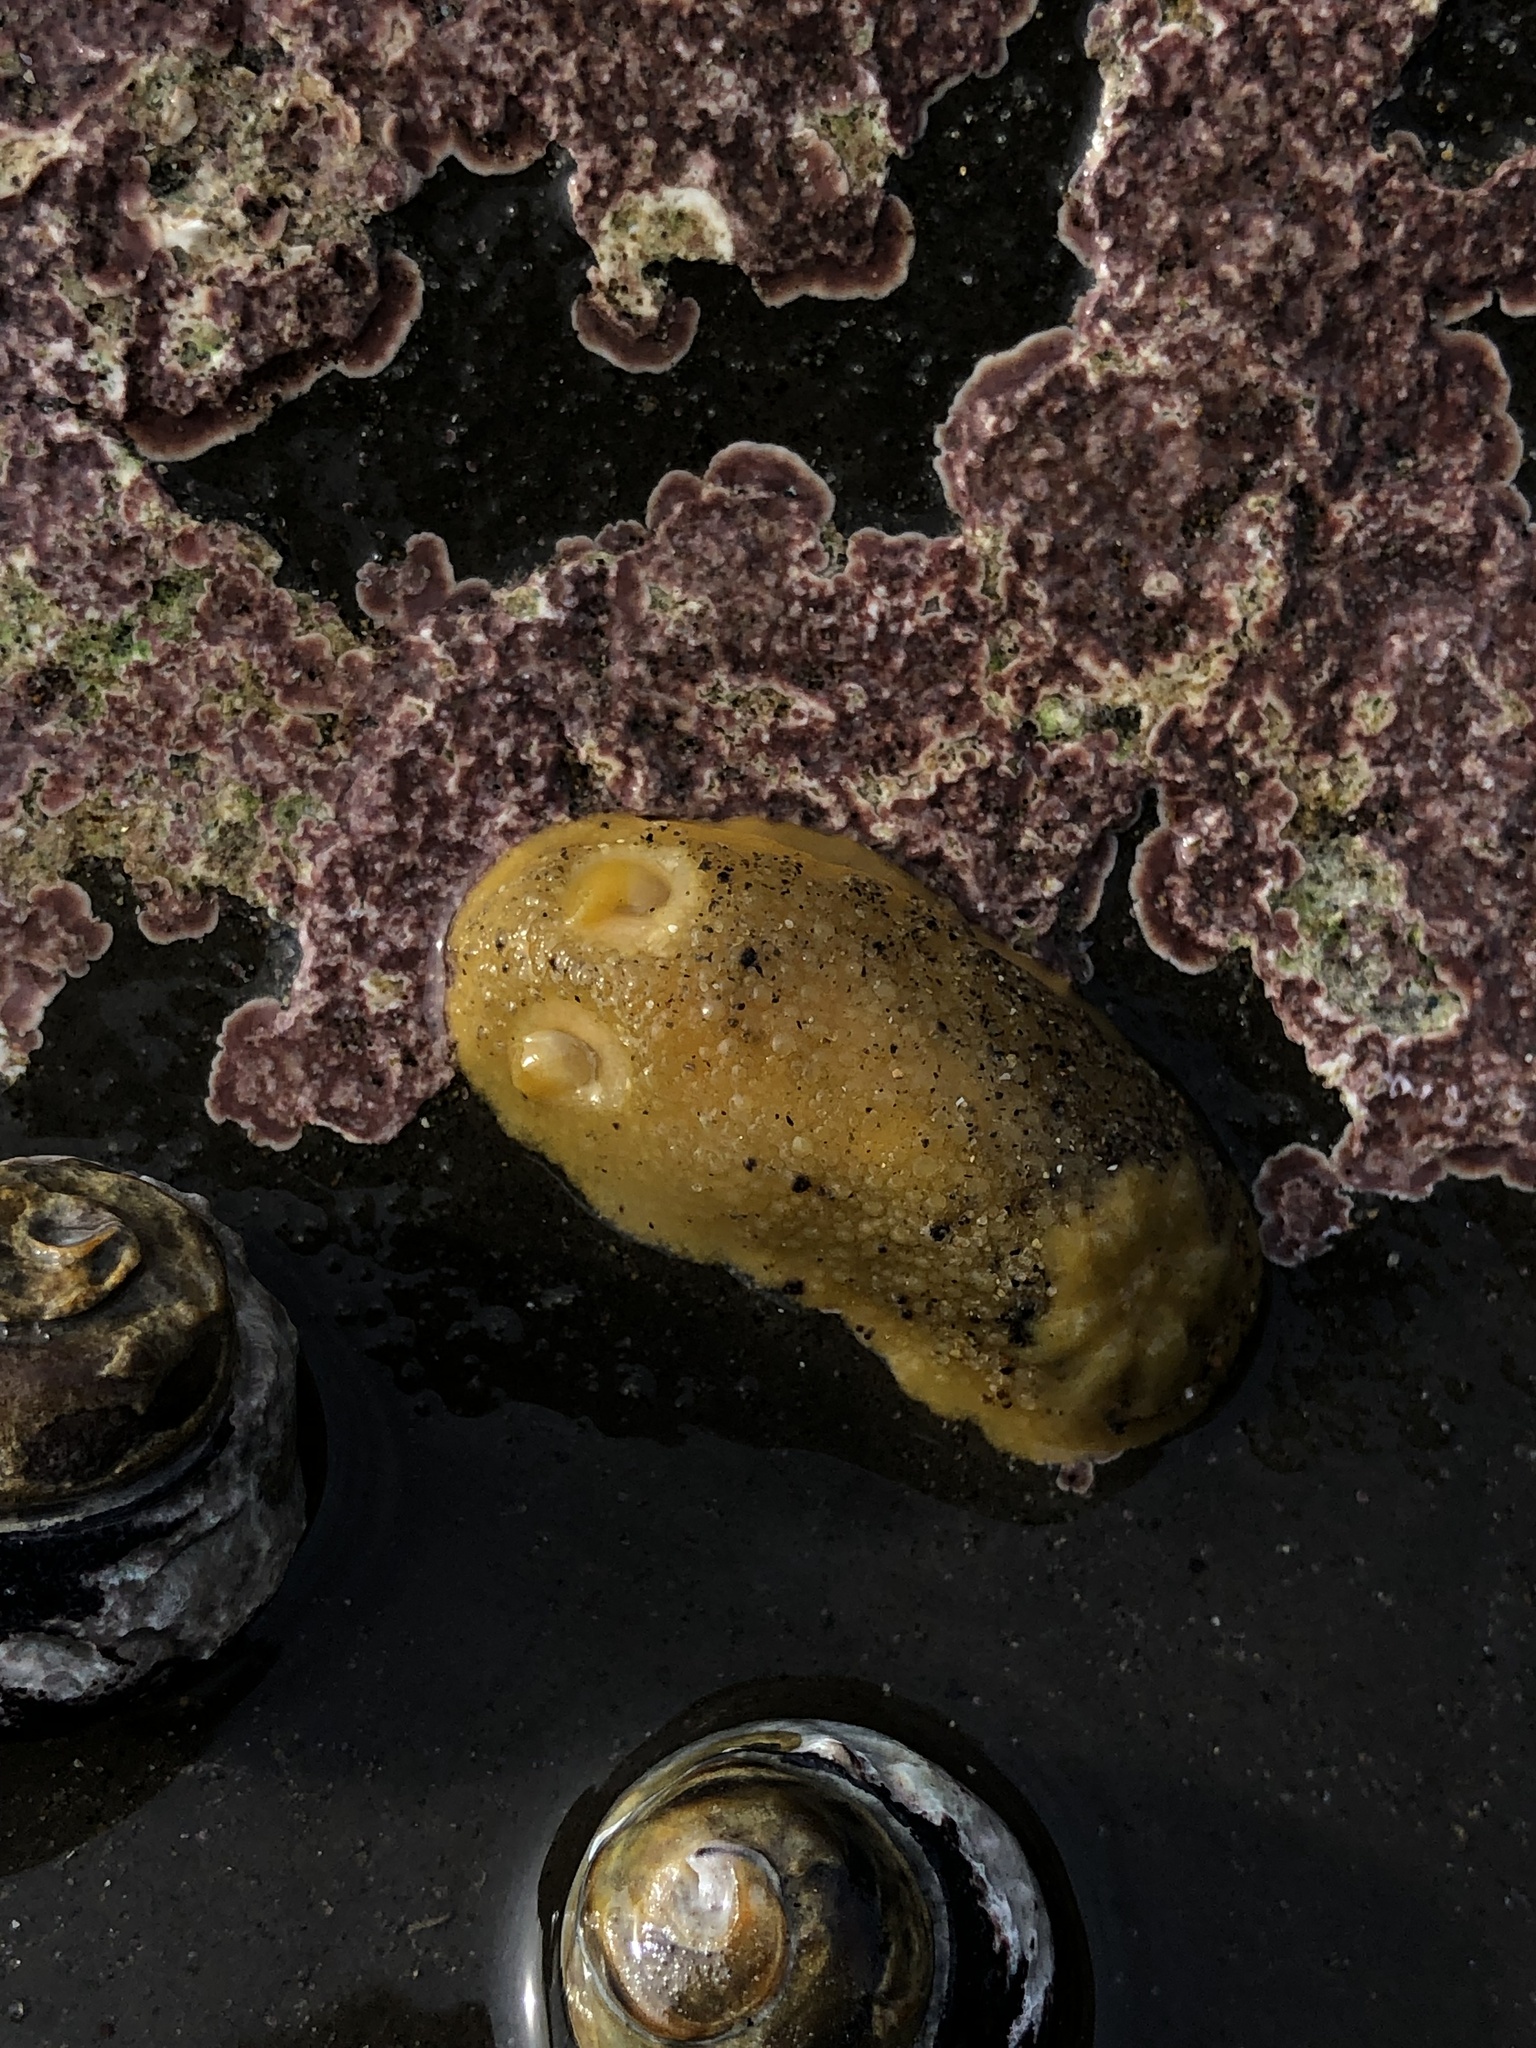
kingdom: Animalia
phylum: Mollusca
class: Gastropoda
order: Nudibranchia
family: Dorididae
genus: Doris
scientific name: Doris montereyensis
